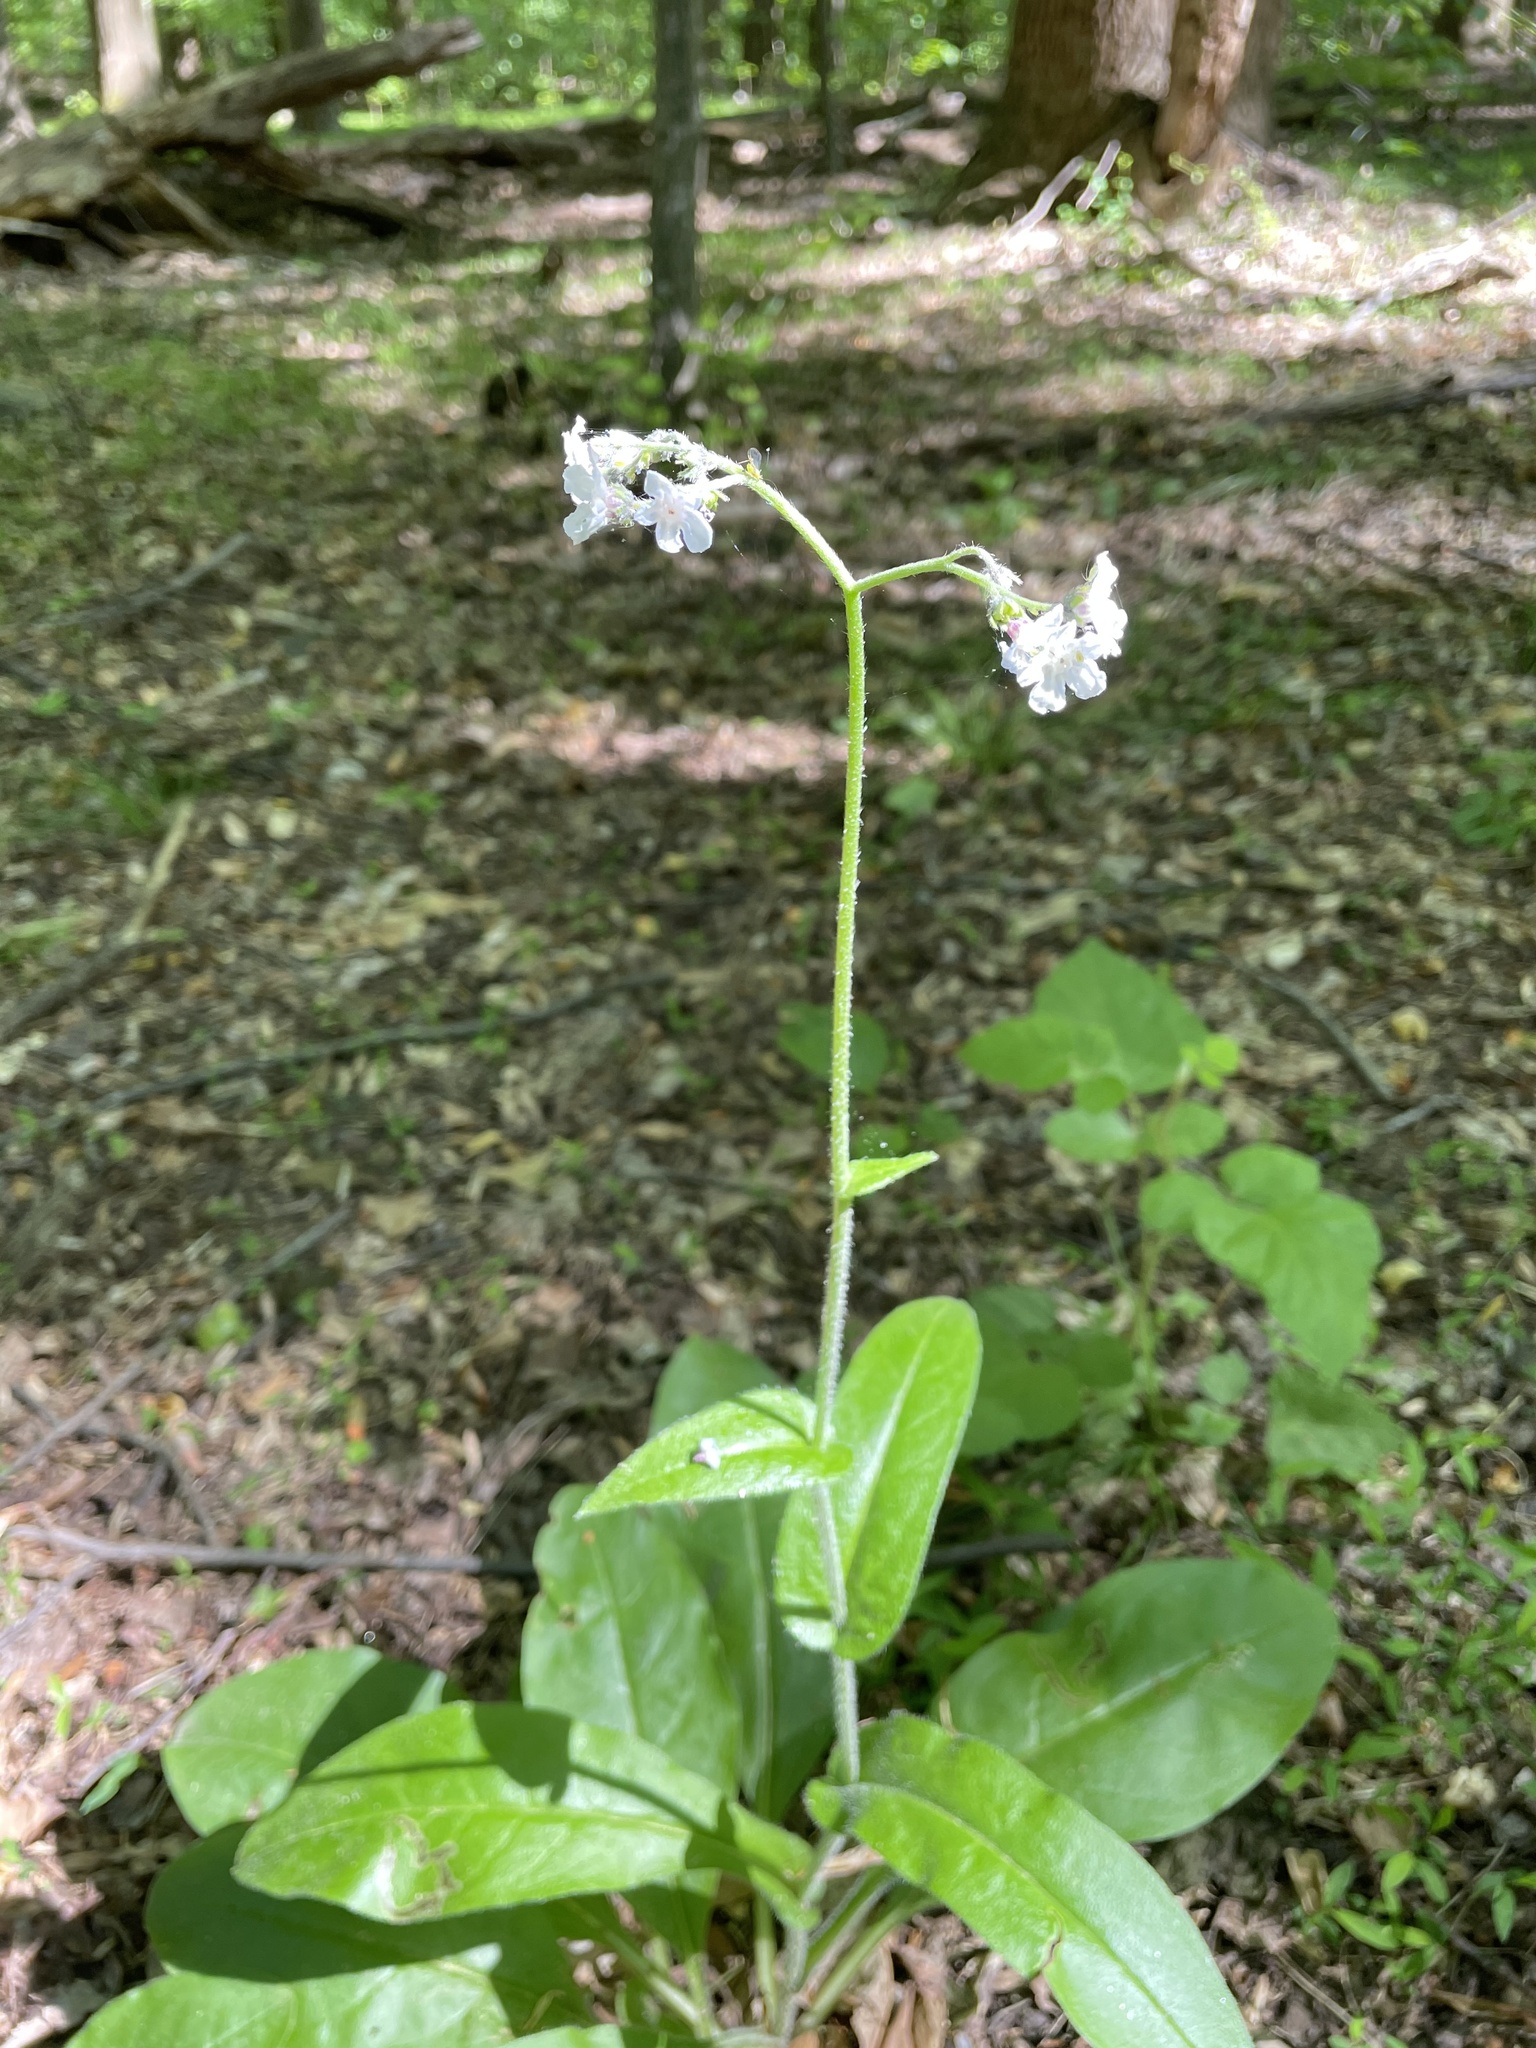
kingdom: Plantae
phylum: Tracheophyta
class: Magnoliopsida
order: Boraginales
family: Boraginaceae
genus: Andersonglossum
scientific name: Andersonglossum virginianum
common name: Wild comfrey
